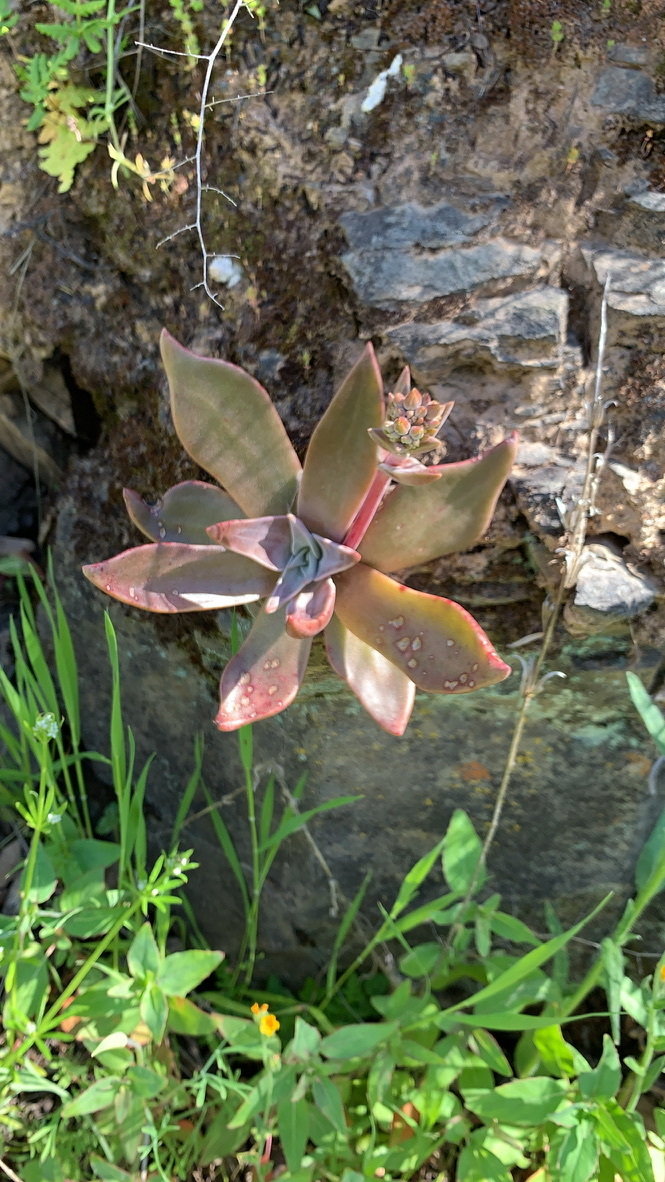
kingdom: Plantae
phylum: Tracheophyta
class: Magnoliopsida
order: Saxifragales
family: Crassulaceae
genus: Dudleya
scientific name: Dudleya cymosa
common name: Canyon dudleya
